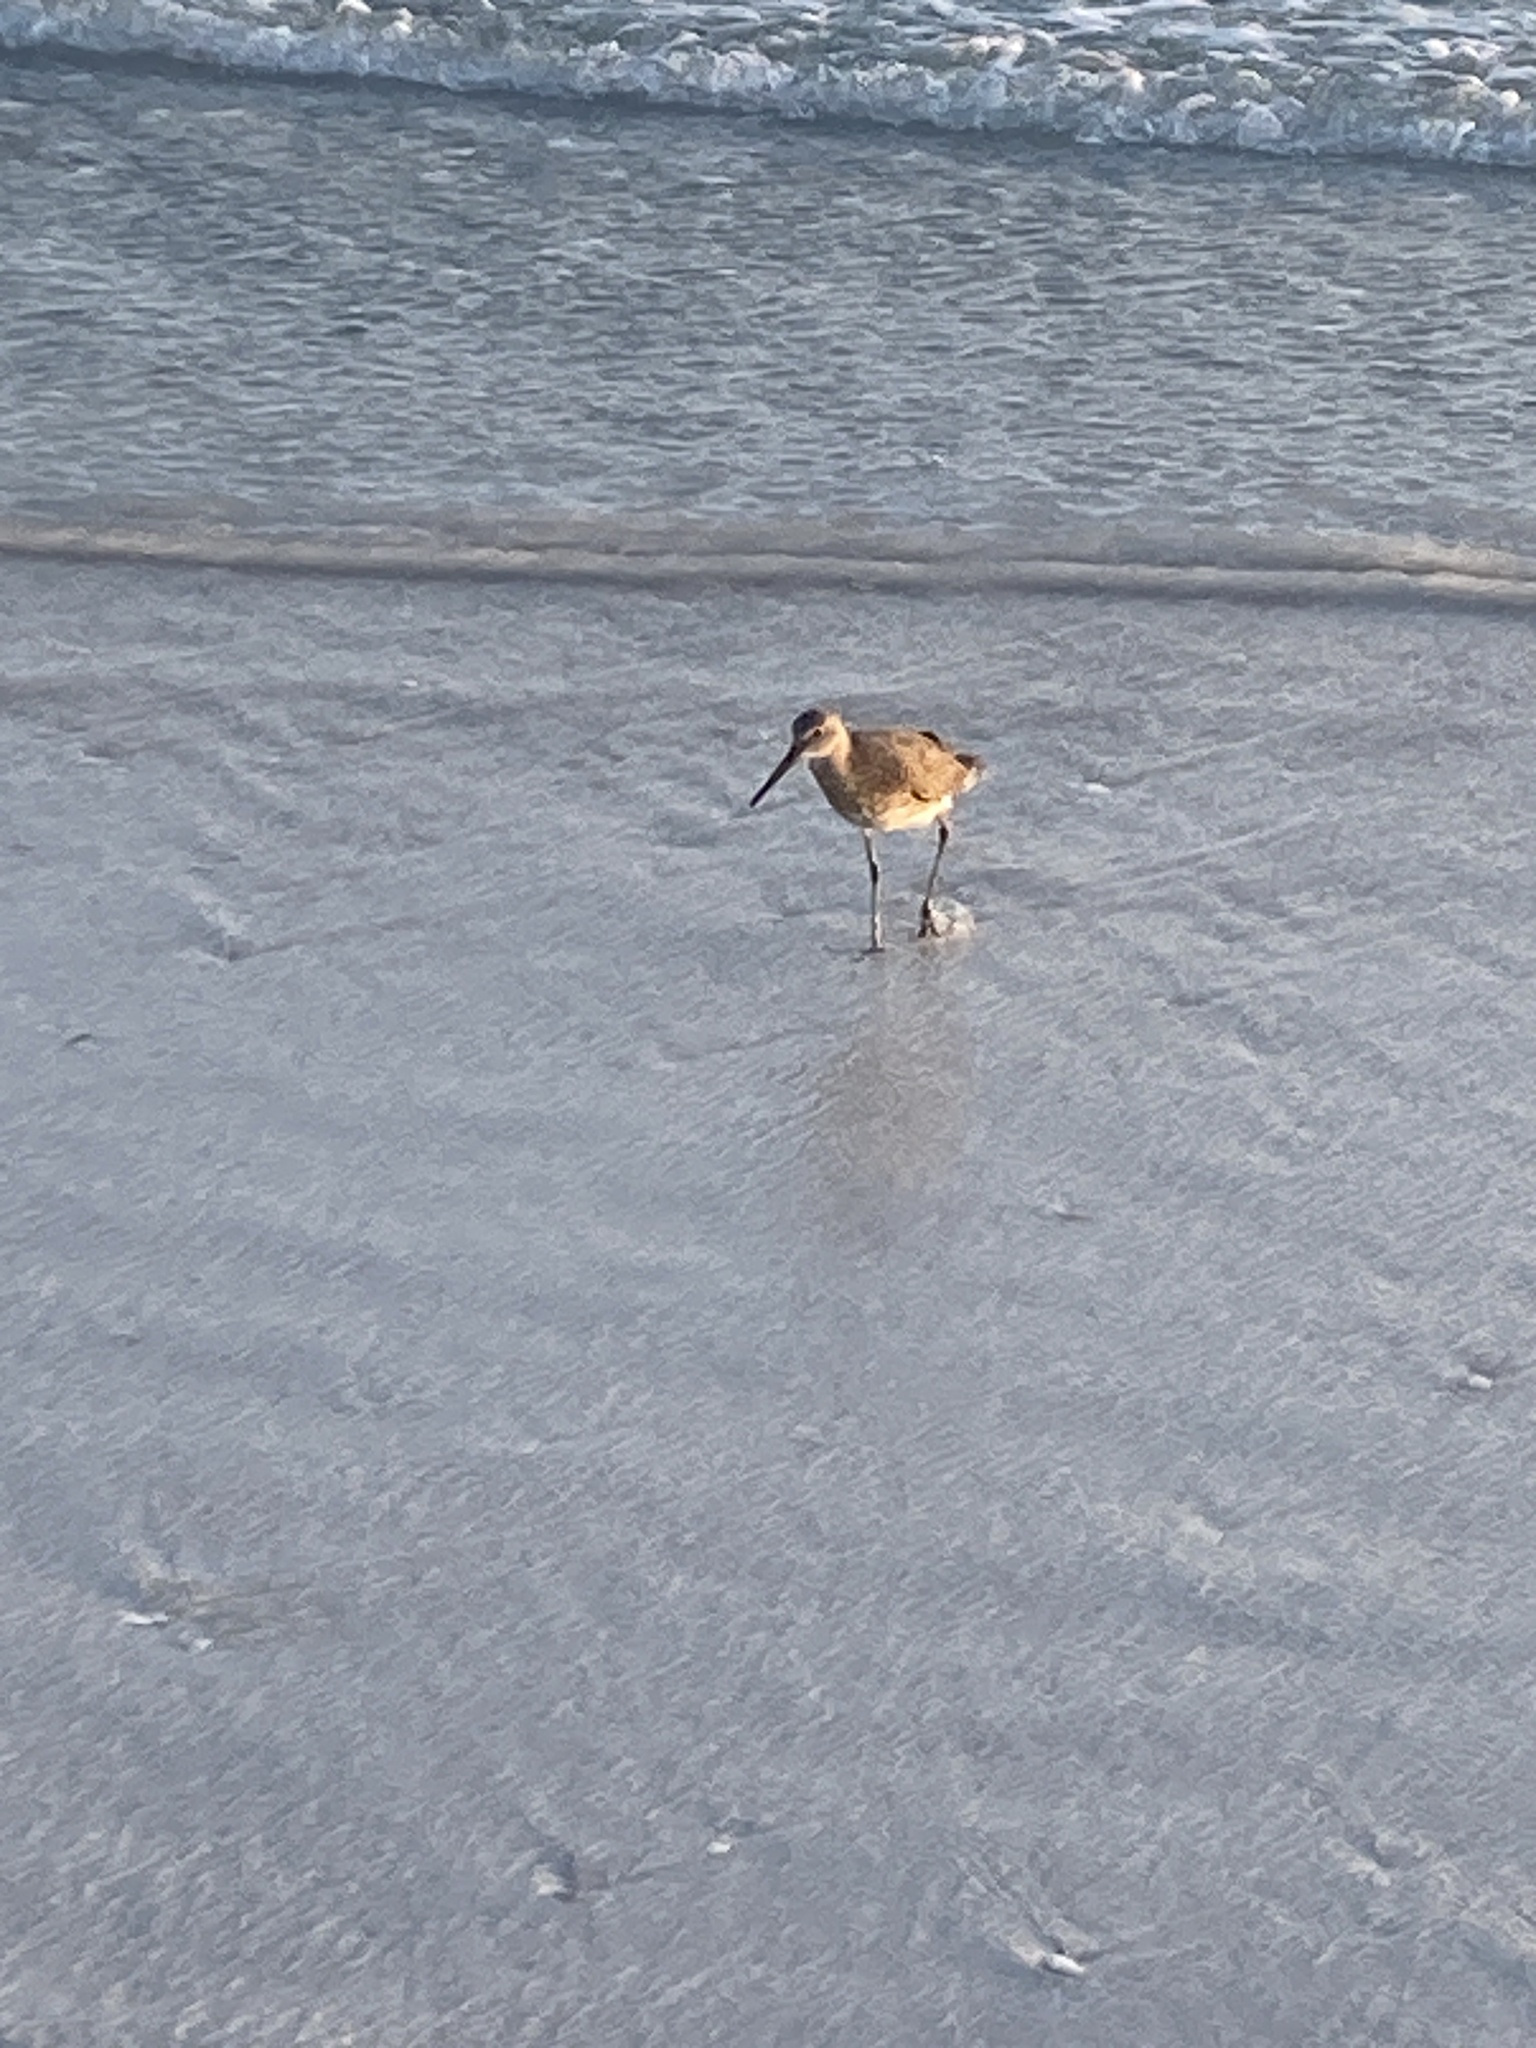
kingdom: Animalia
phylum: Chordata
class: Aves
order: Charadriiformes
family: Scolopacidae
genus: Tringa
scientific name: Tringa semipalmata
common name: Willet
